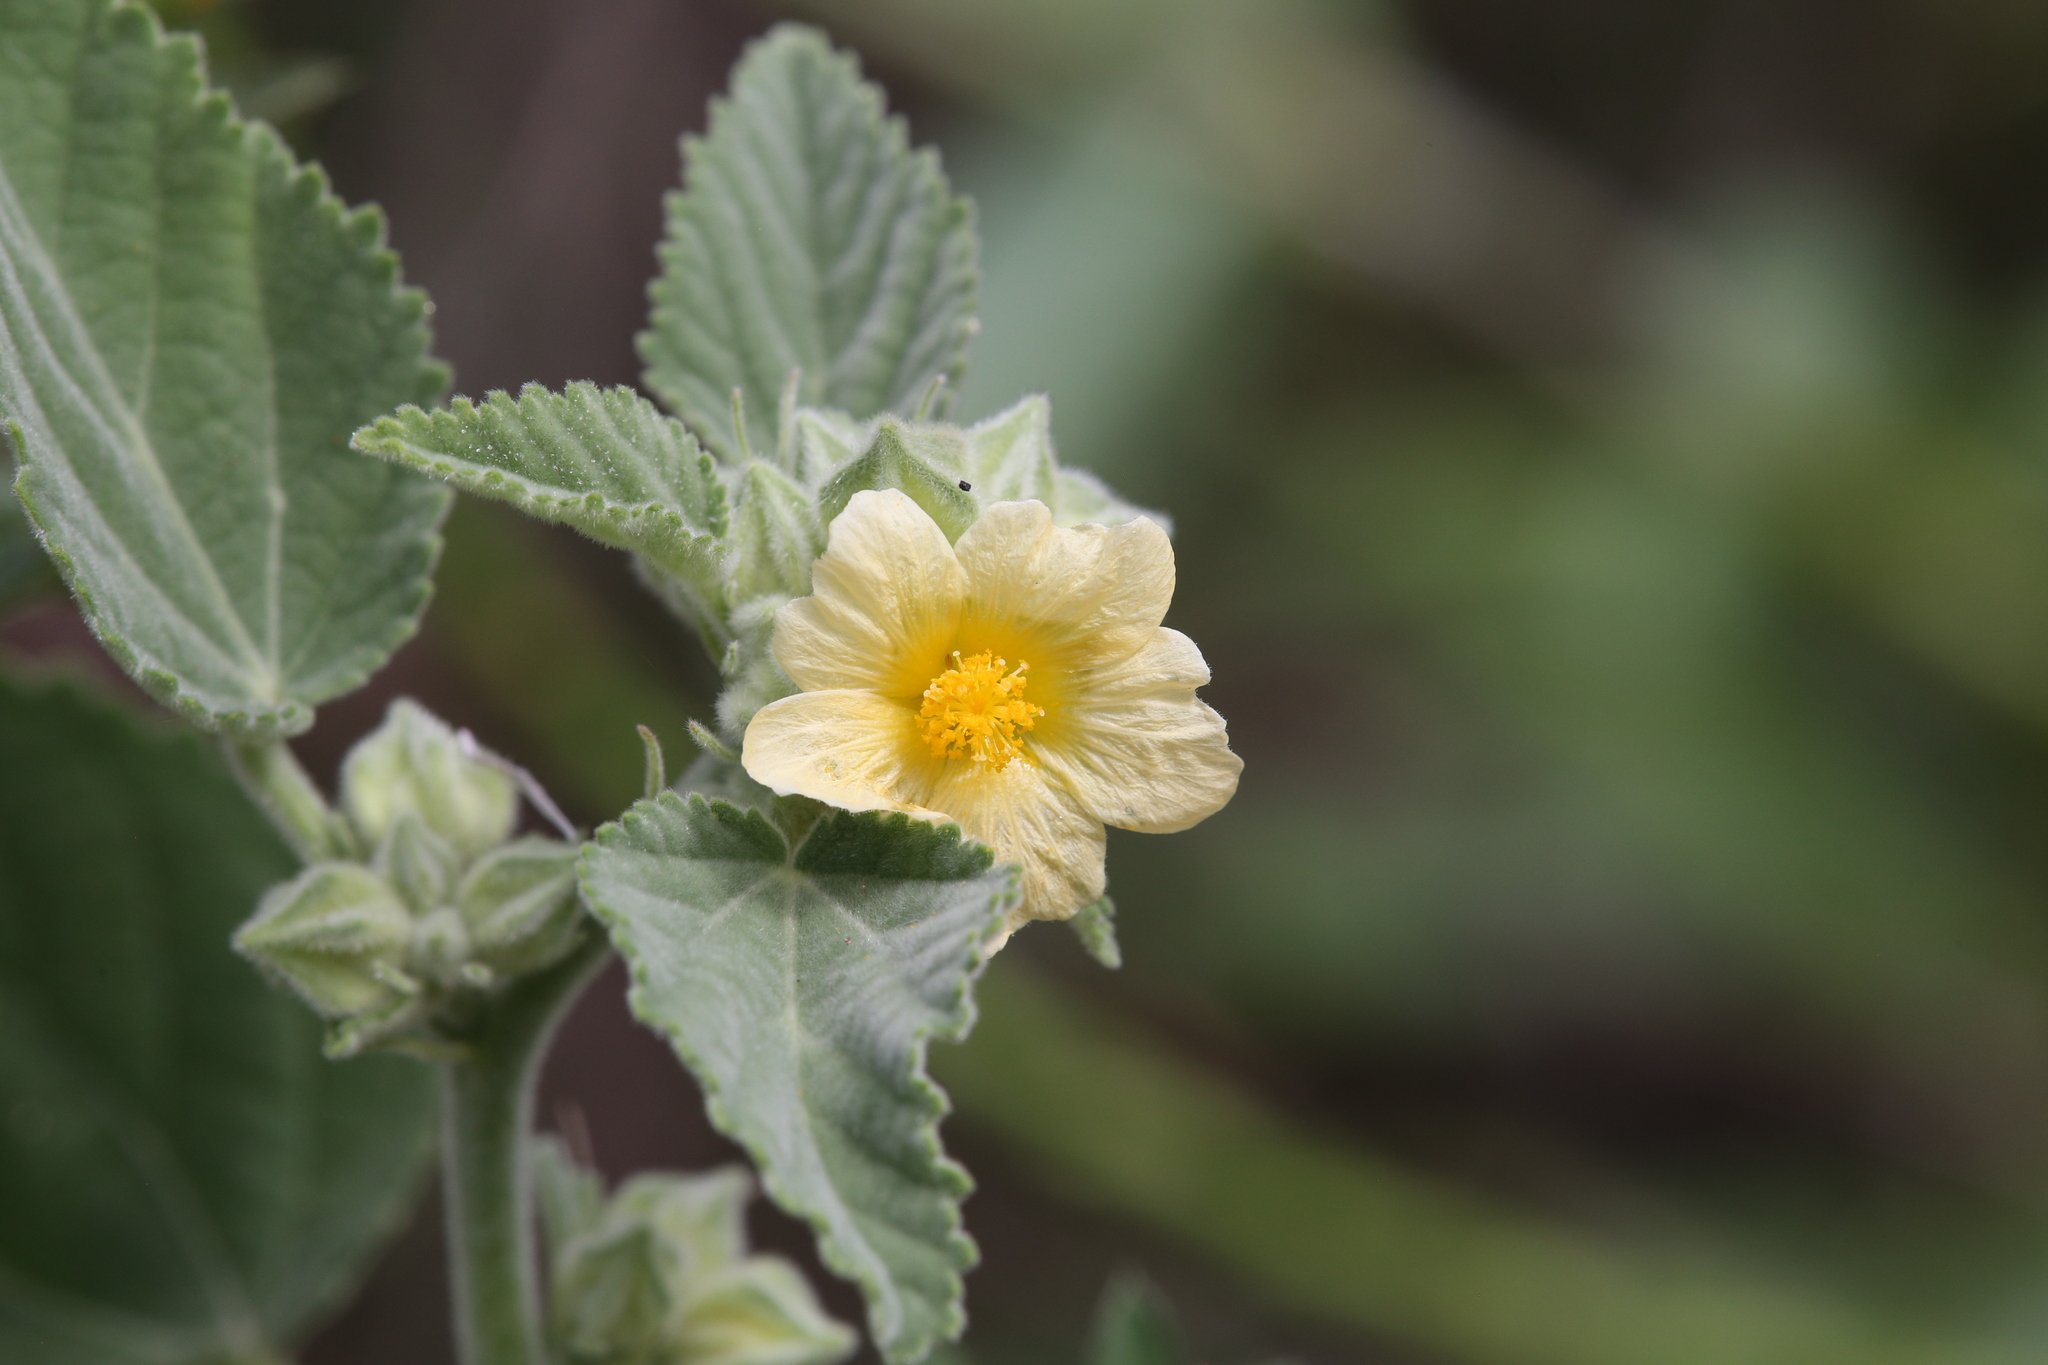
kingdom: Plantae
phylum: Tracheophyta
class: Magnoliopsida
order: Malvales
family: Malvaceae
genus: Sida
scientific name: Sida cordifolia
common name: Ilima
